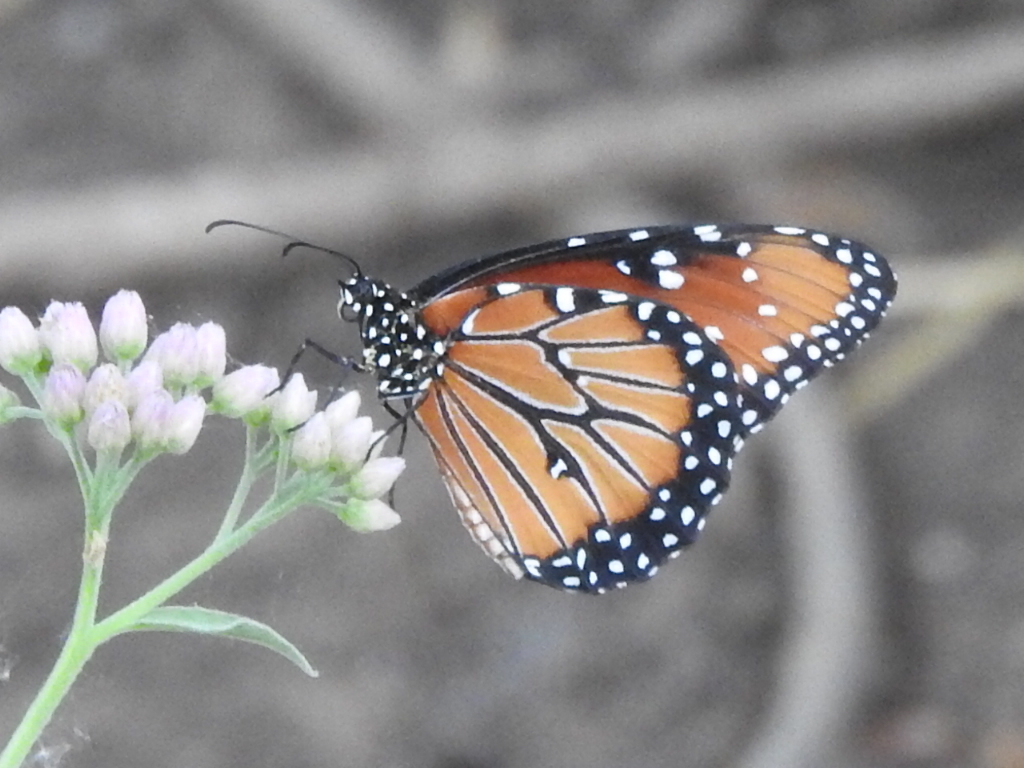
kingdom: Animalia
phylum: Arthropoda
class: Insecta
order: Lepidoptera
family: Nymphalidae
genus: Danaus
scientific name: Danaus gilippus
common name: Queen
